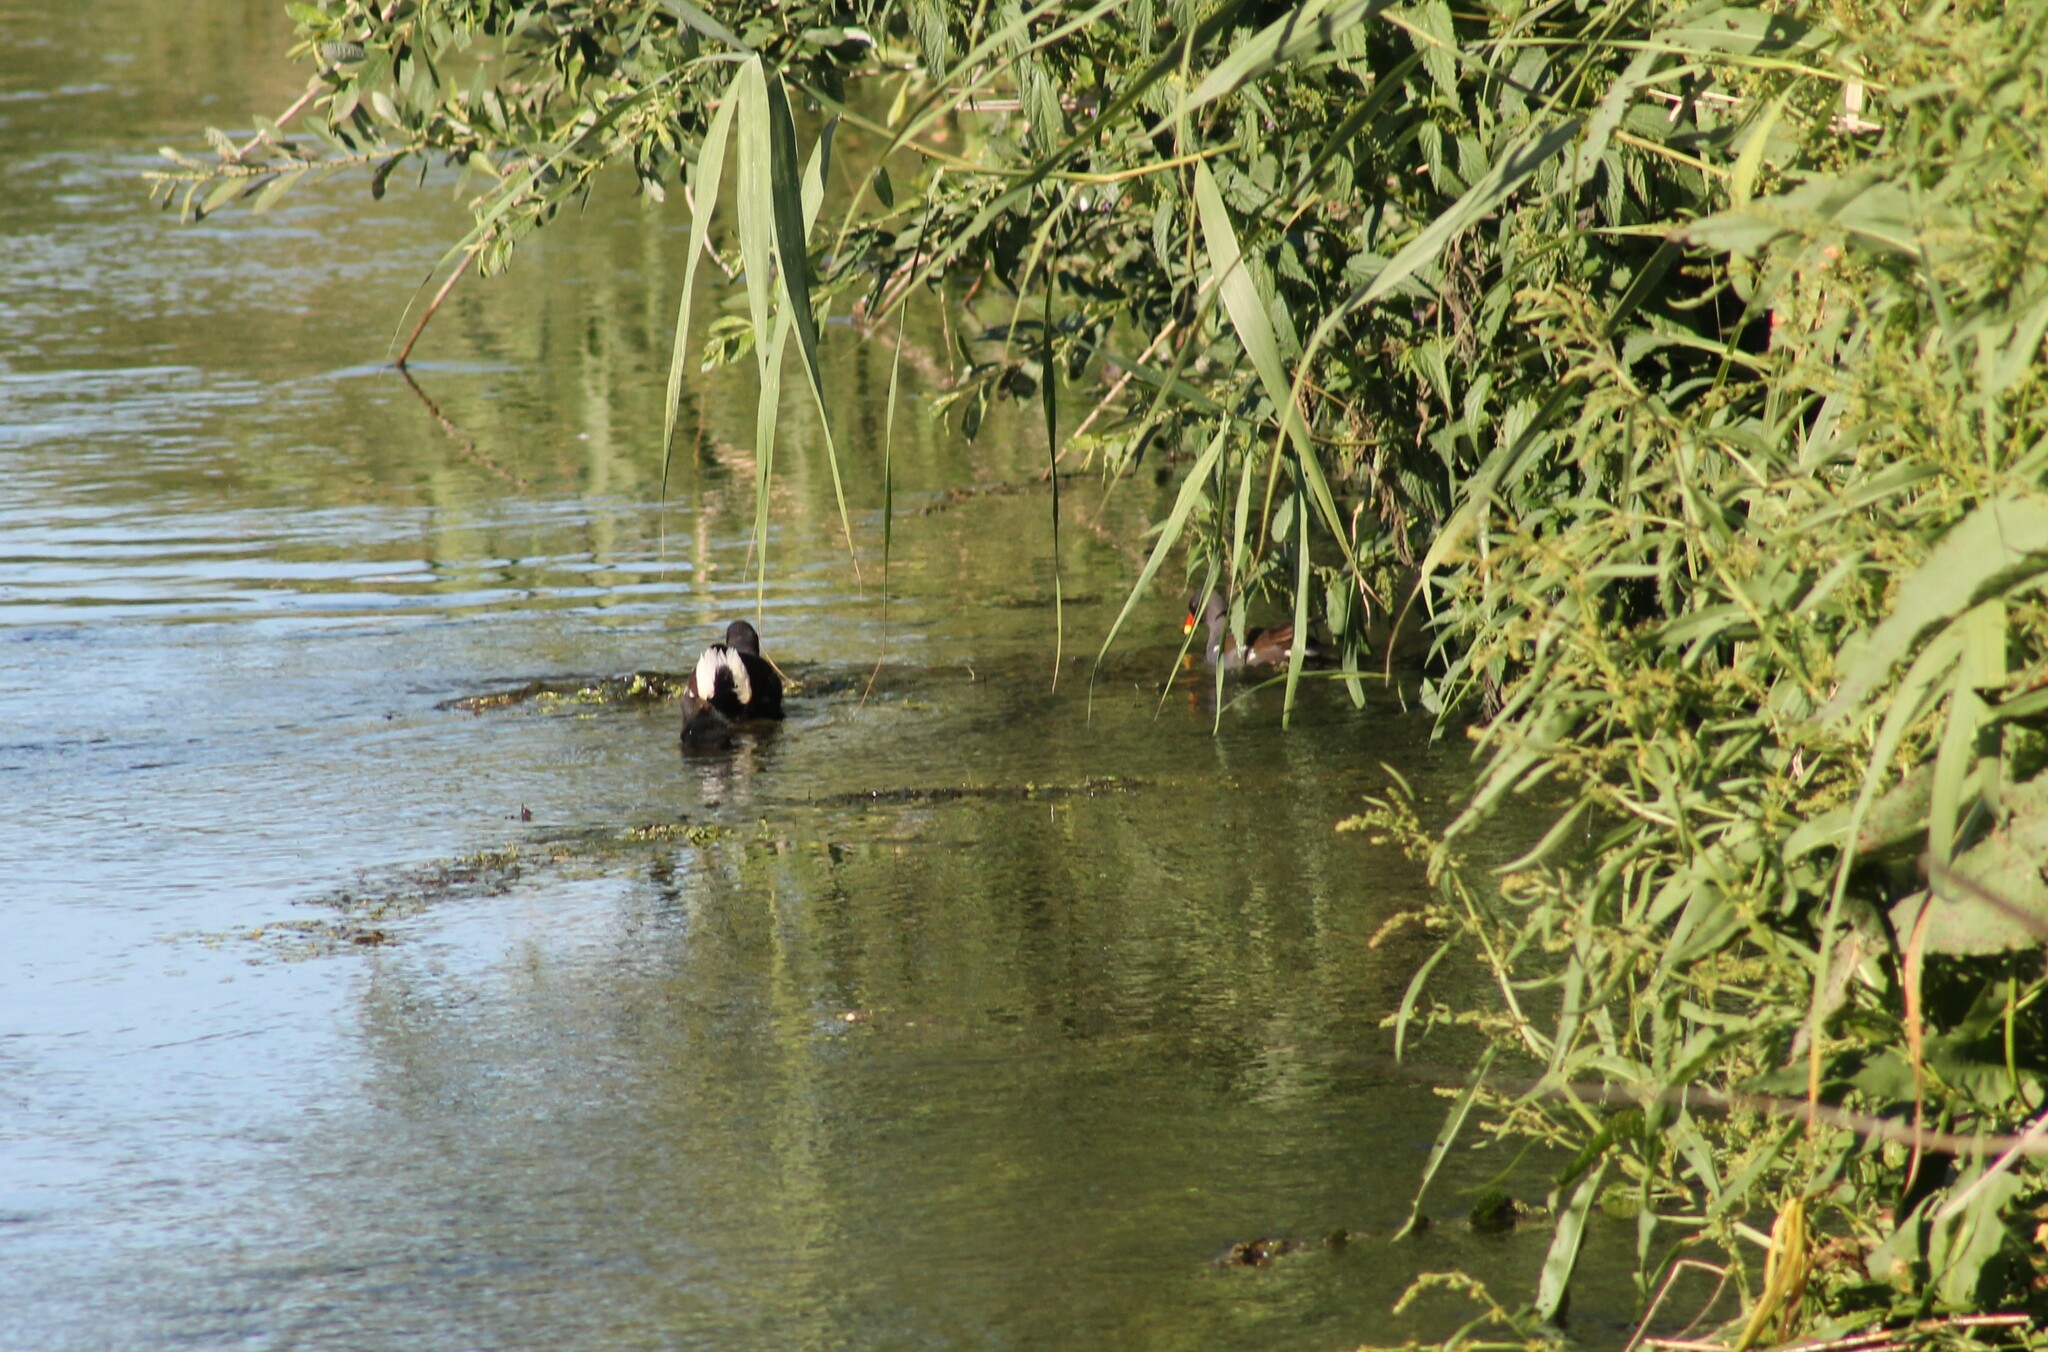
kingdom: Animalia
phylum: Chordata
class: Aves
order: Gruiformes
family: Rallidae
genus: Gallinula
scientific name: Gallinula chloropus
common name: Common moorhen
